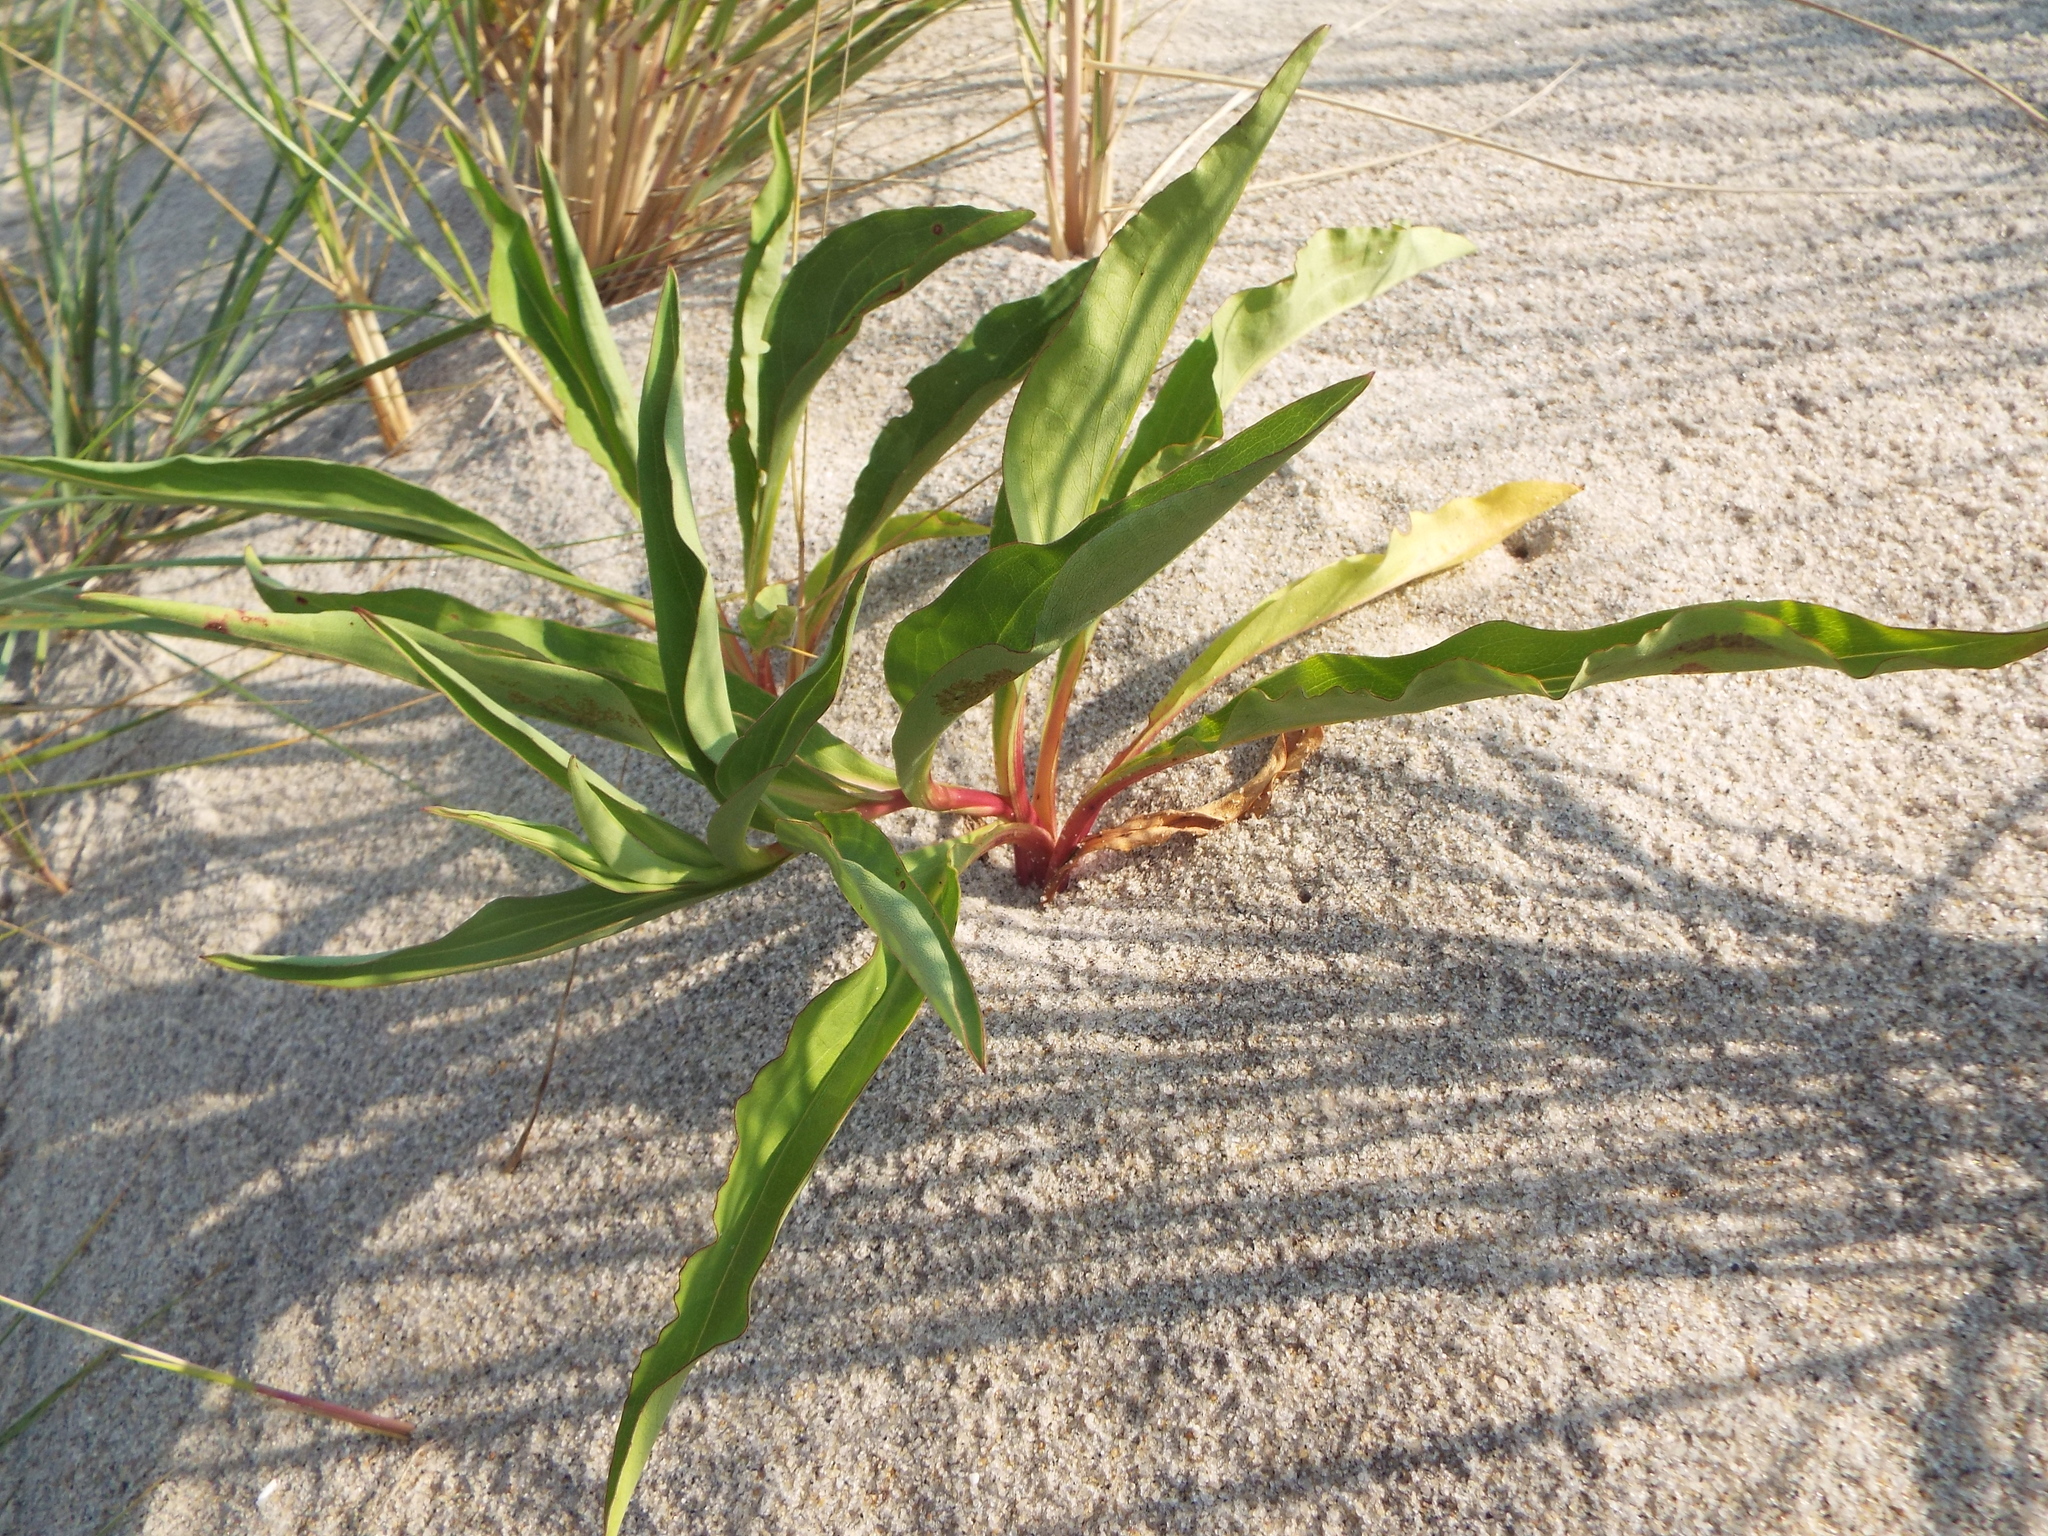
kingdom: Plantae
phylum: Tracheophyta
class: Magnoliopsida
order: Asterales
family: Asteraceae
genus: Solidago
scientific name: Solidago sempervirens
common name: Salt-marsh goldenrod
